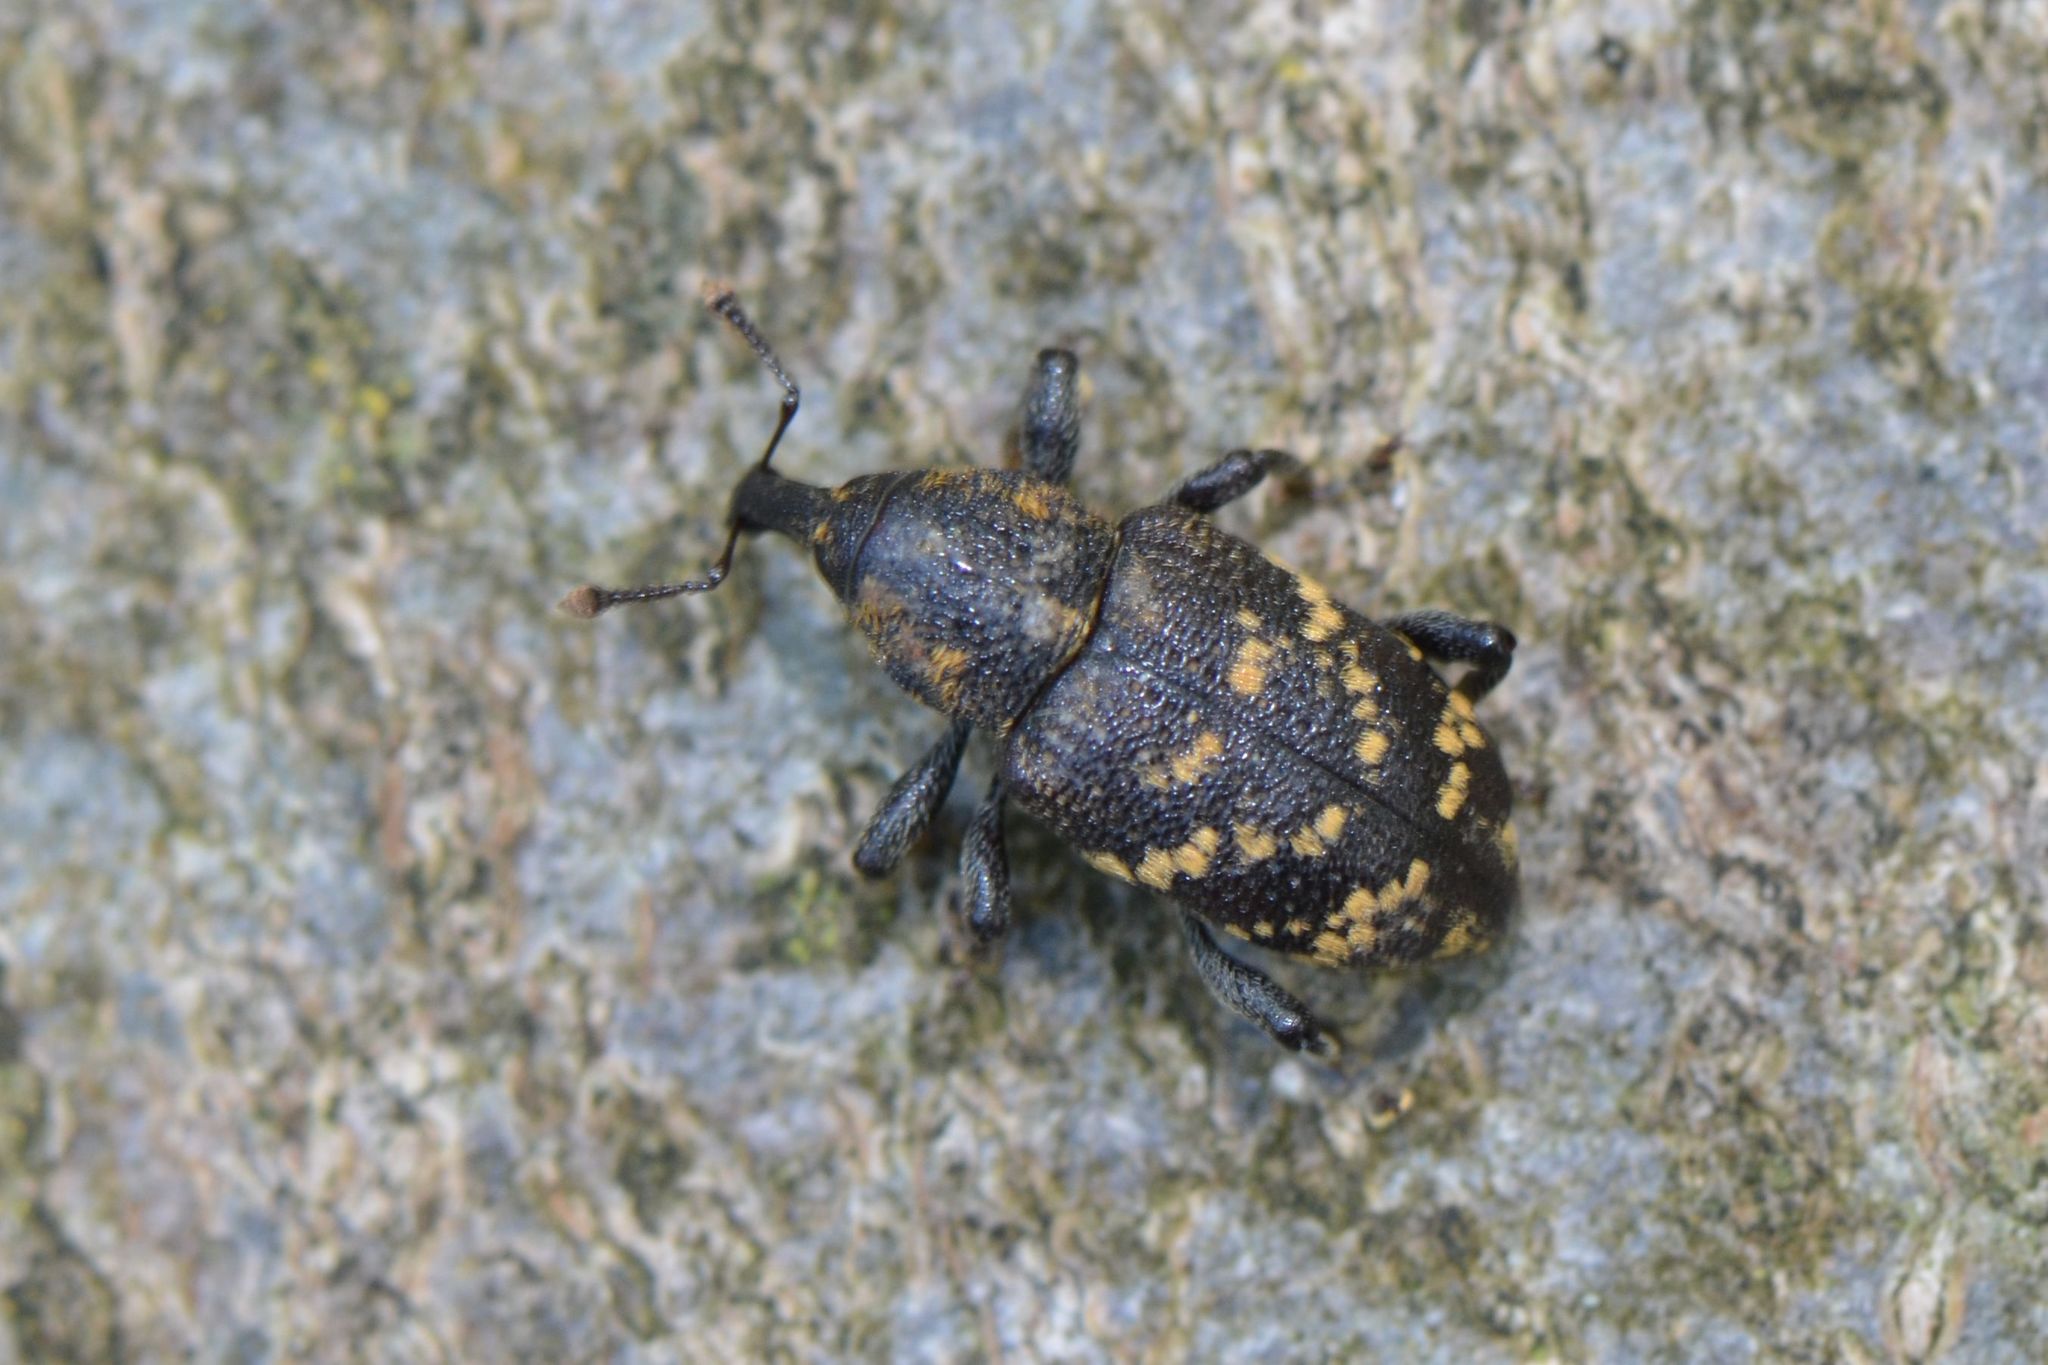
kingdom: Animalia
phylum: Arthropoda
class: Insecta
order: Coleoptera
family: Curculionidae
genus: Hylobius
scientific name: Hylobius abietis
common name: Large pine weevil
